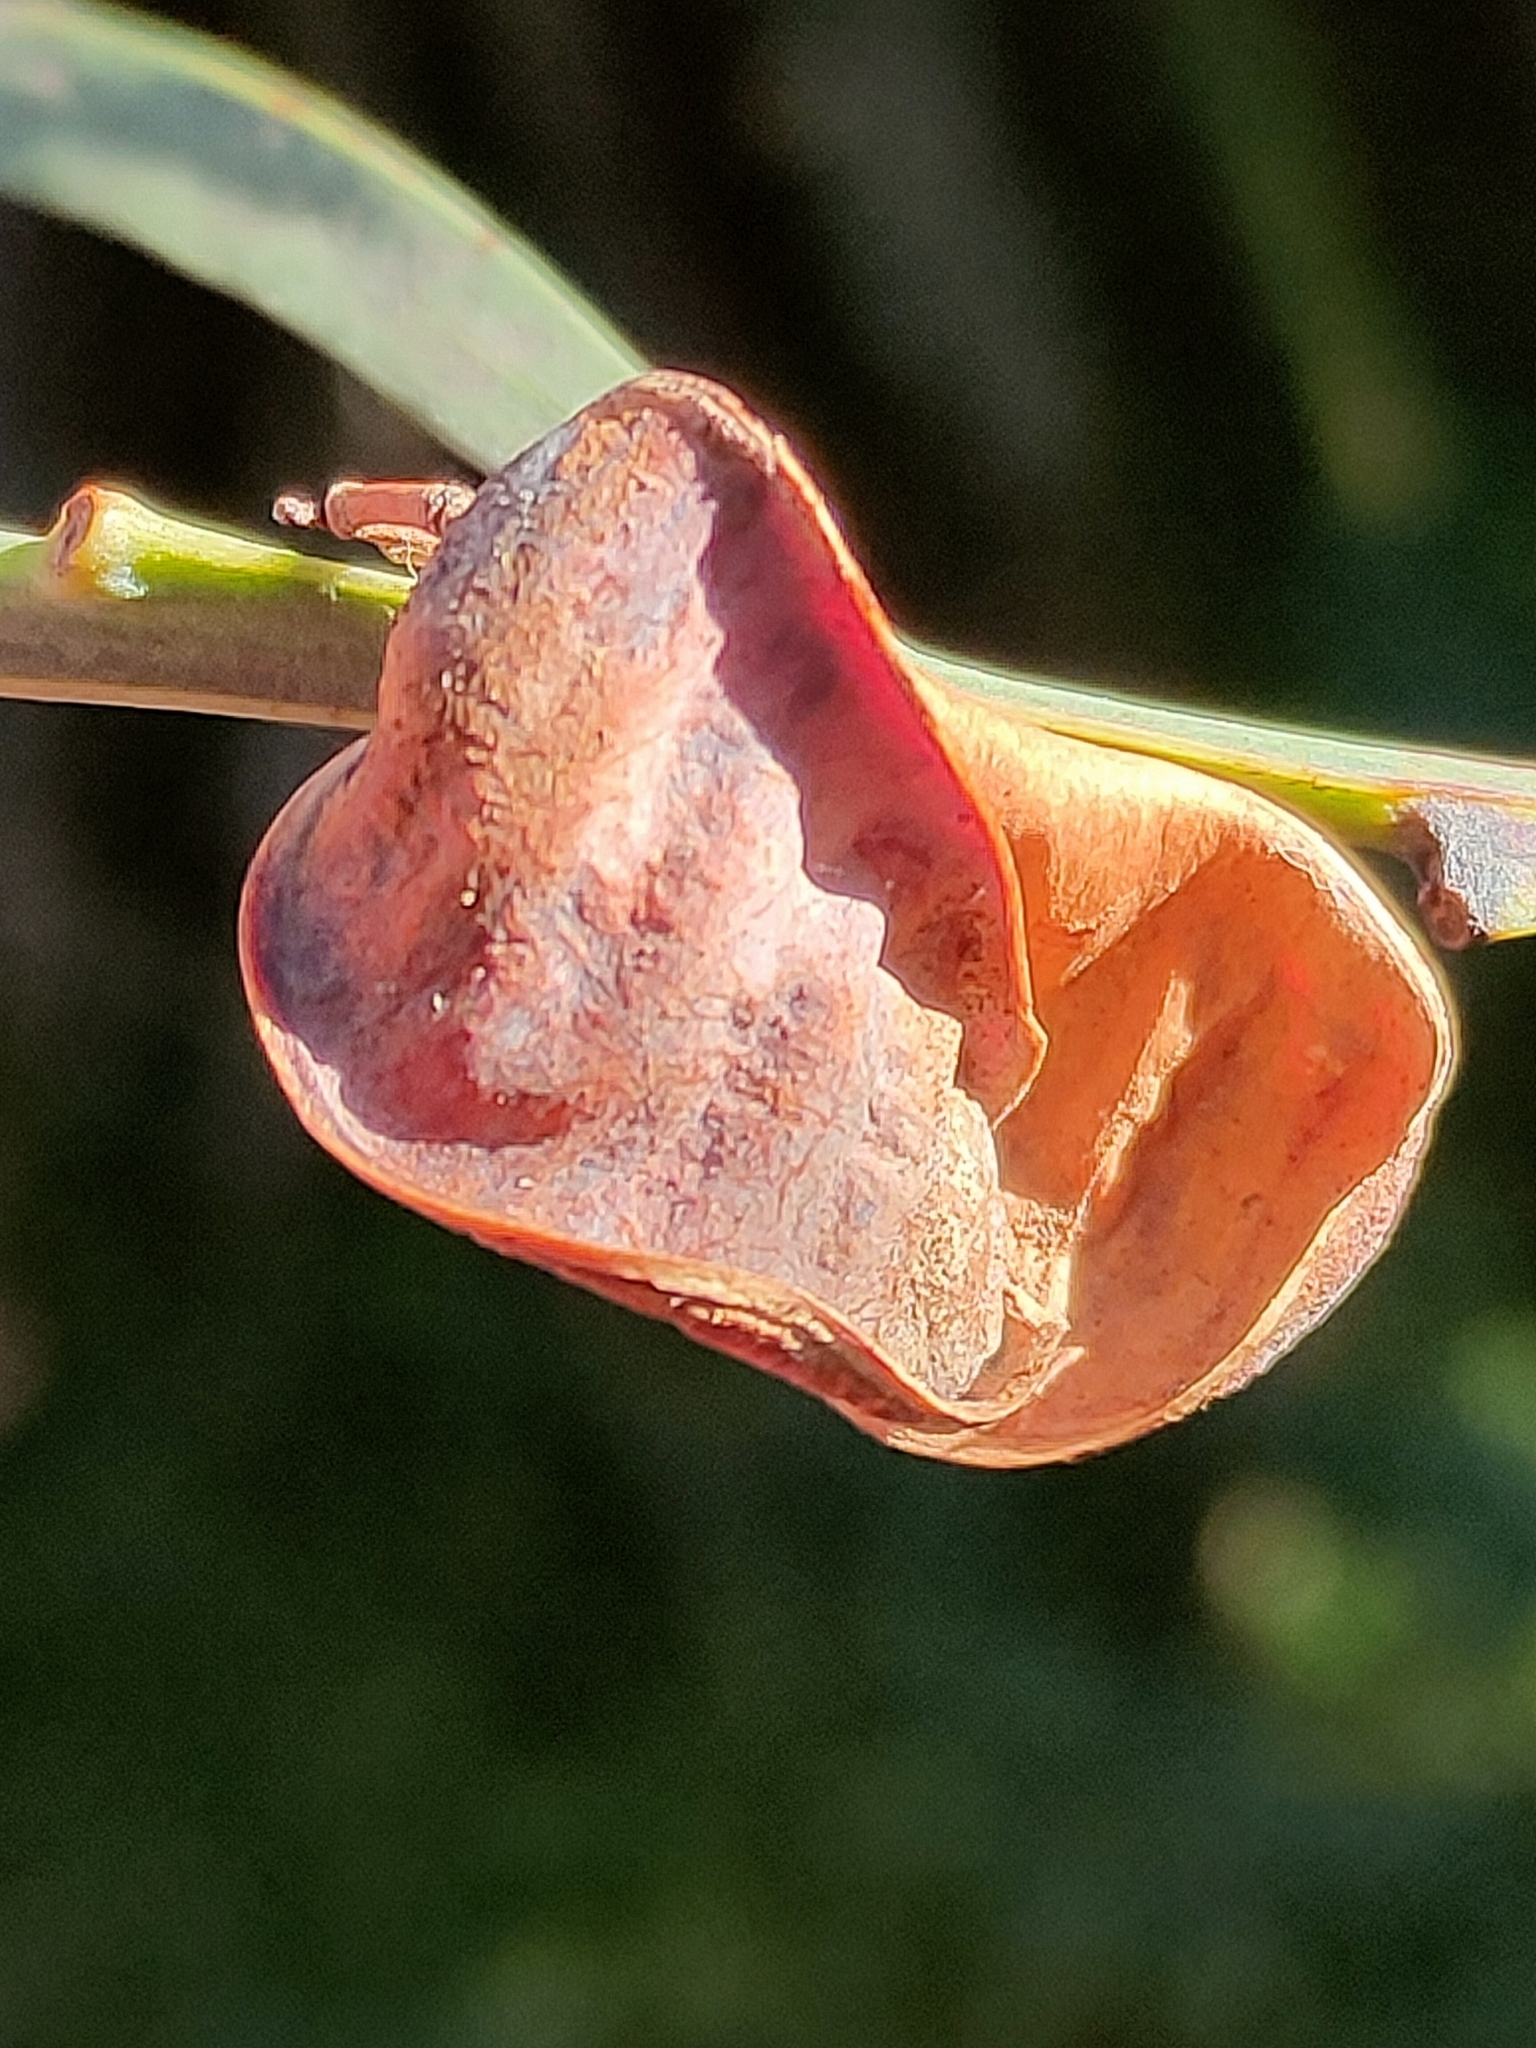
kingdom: Plantae
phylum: Tracheophyta
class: Magnoliopsida
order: Fabales
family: Fabaceae
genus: Acacia
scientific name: Acacia suaveolens
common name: Sweet acacia
